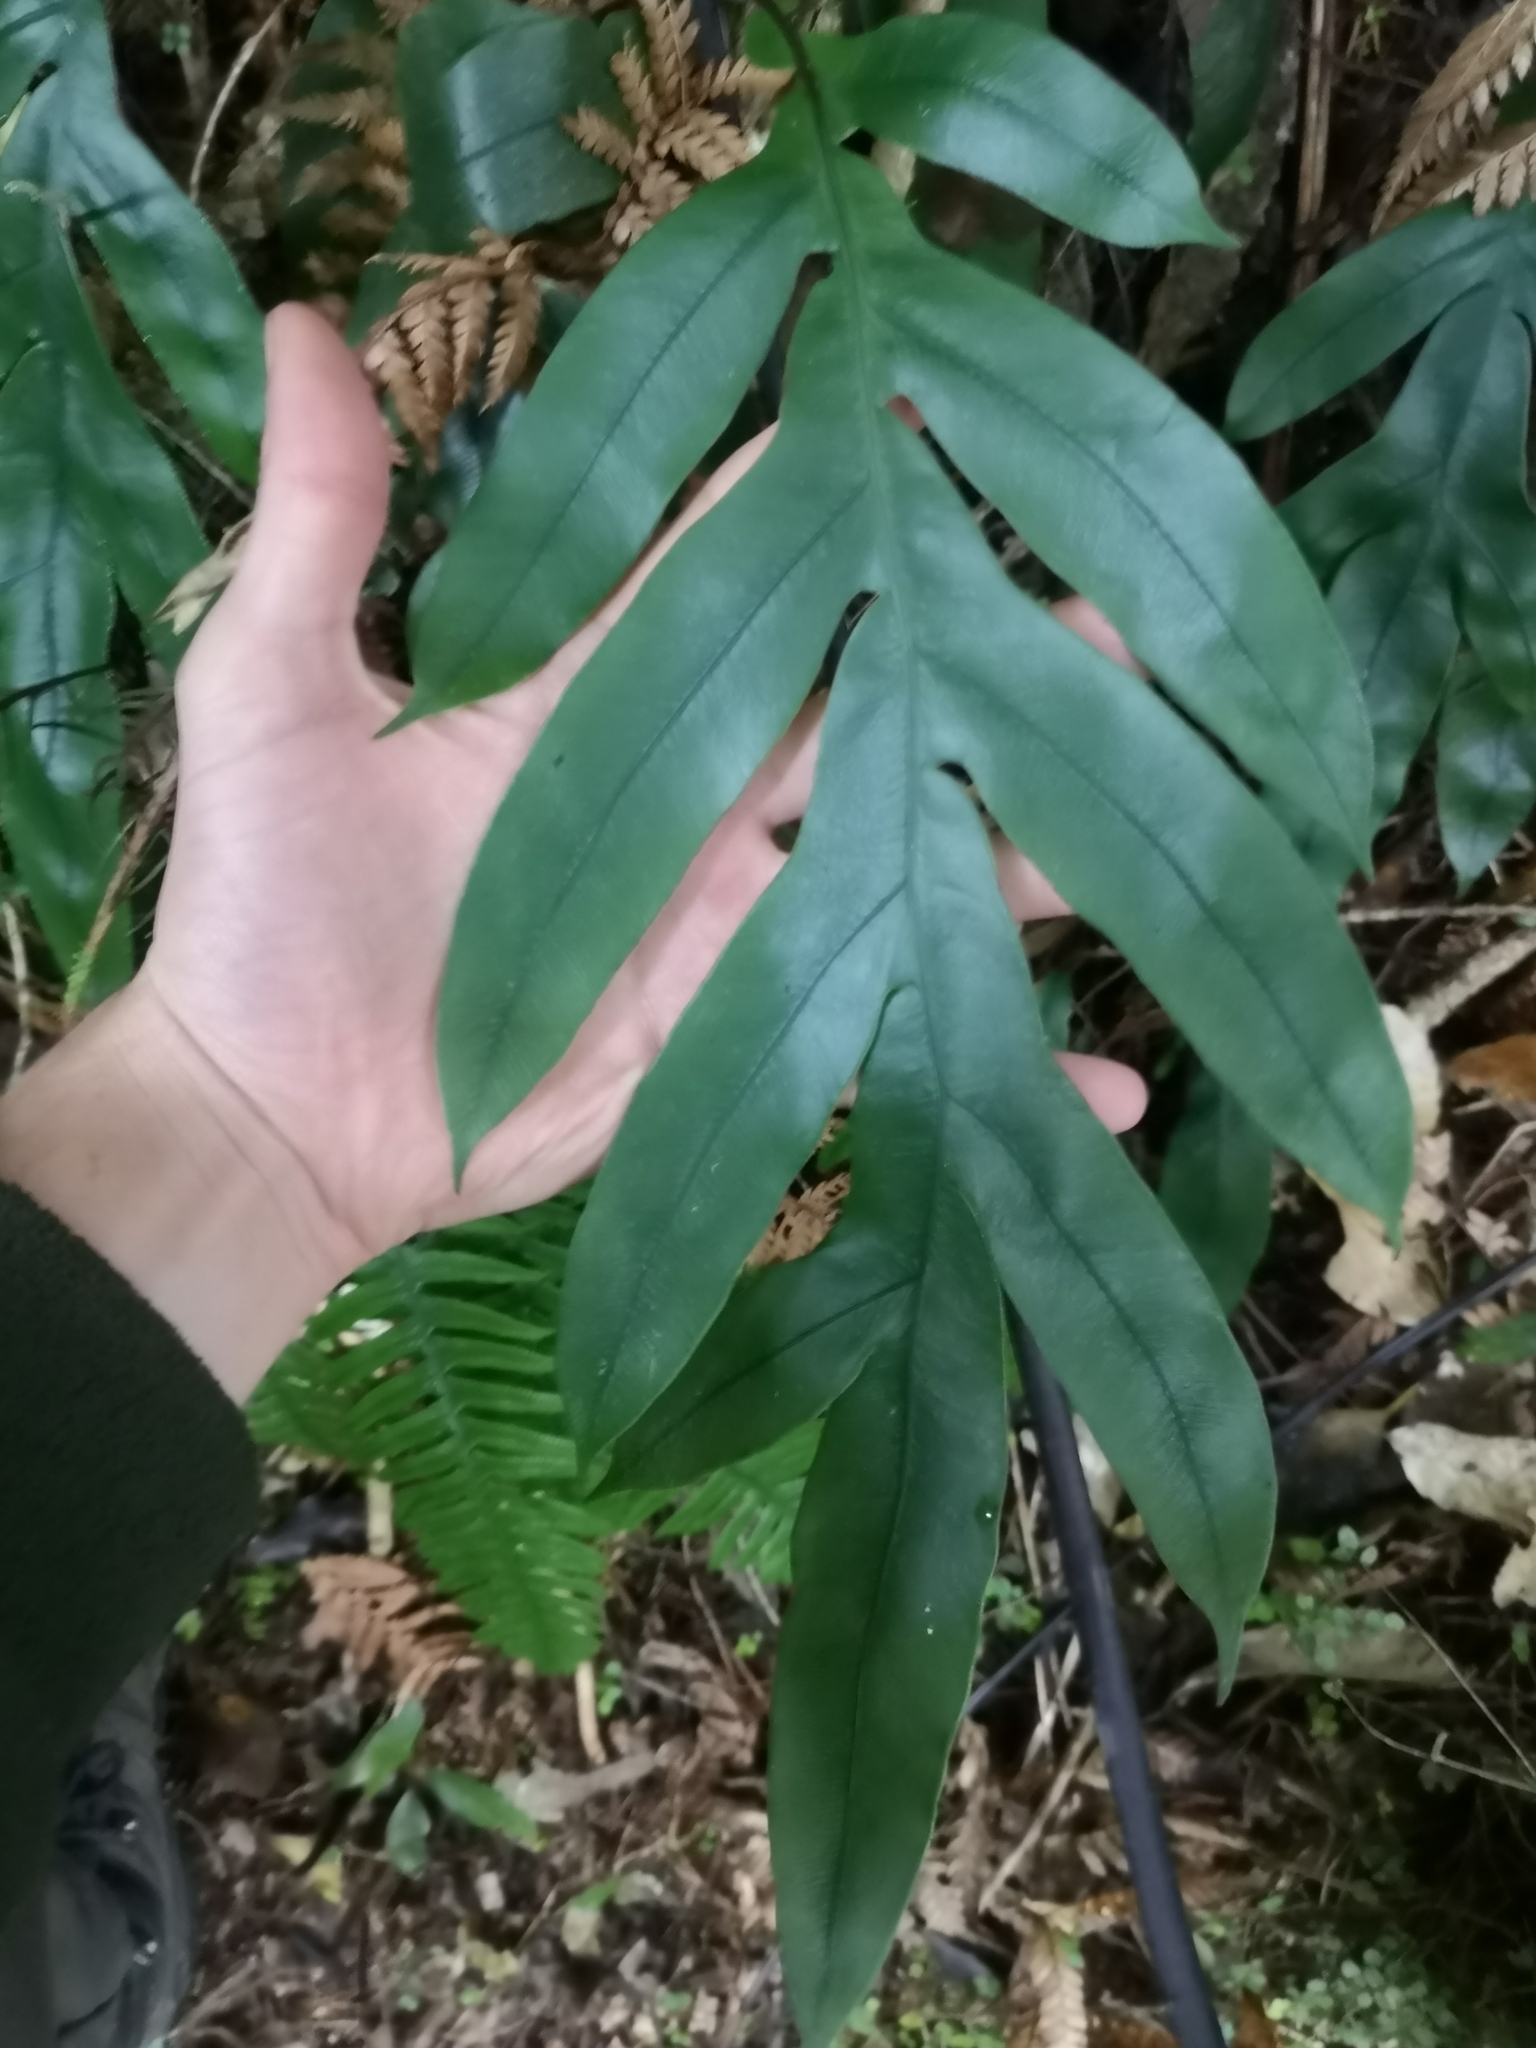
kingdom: Plantae
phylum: Tracheophyta
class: Polypodiopsida
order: Polypodiales
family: Blechnaceae
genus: Austroblechnum
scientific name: Austroblechnum colensoi
